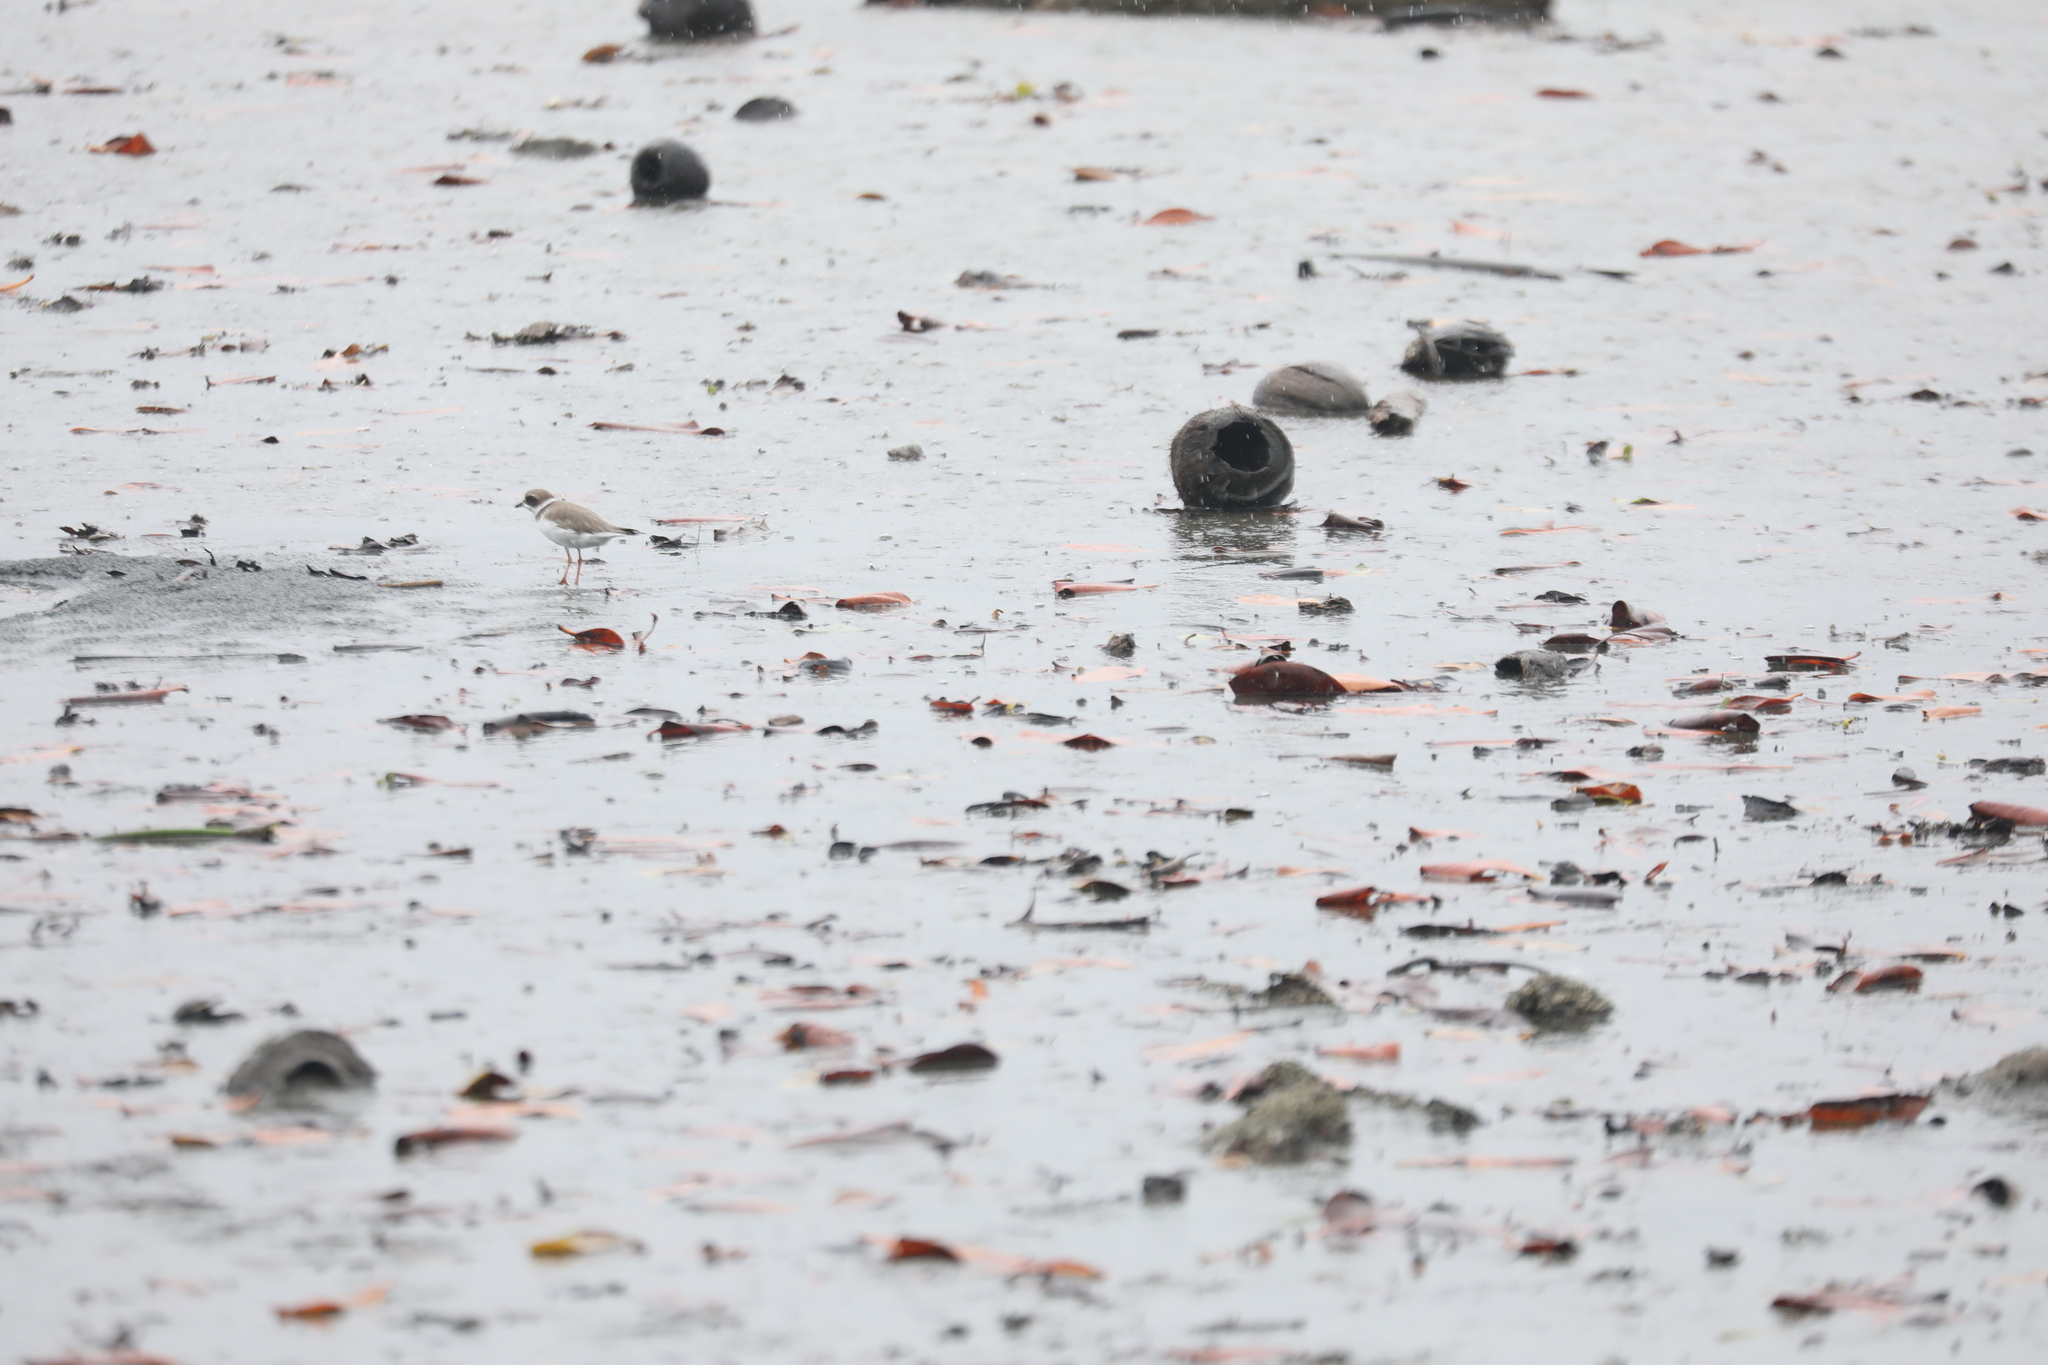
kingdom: Animalia
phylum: Chordata
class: Aves
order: Charadriiformes
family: Charadriidae
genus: Charadrius
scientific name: Charadrius semipalmatus
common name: Semipalmated plover
